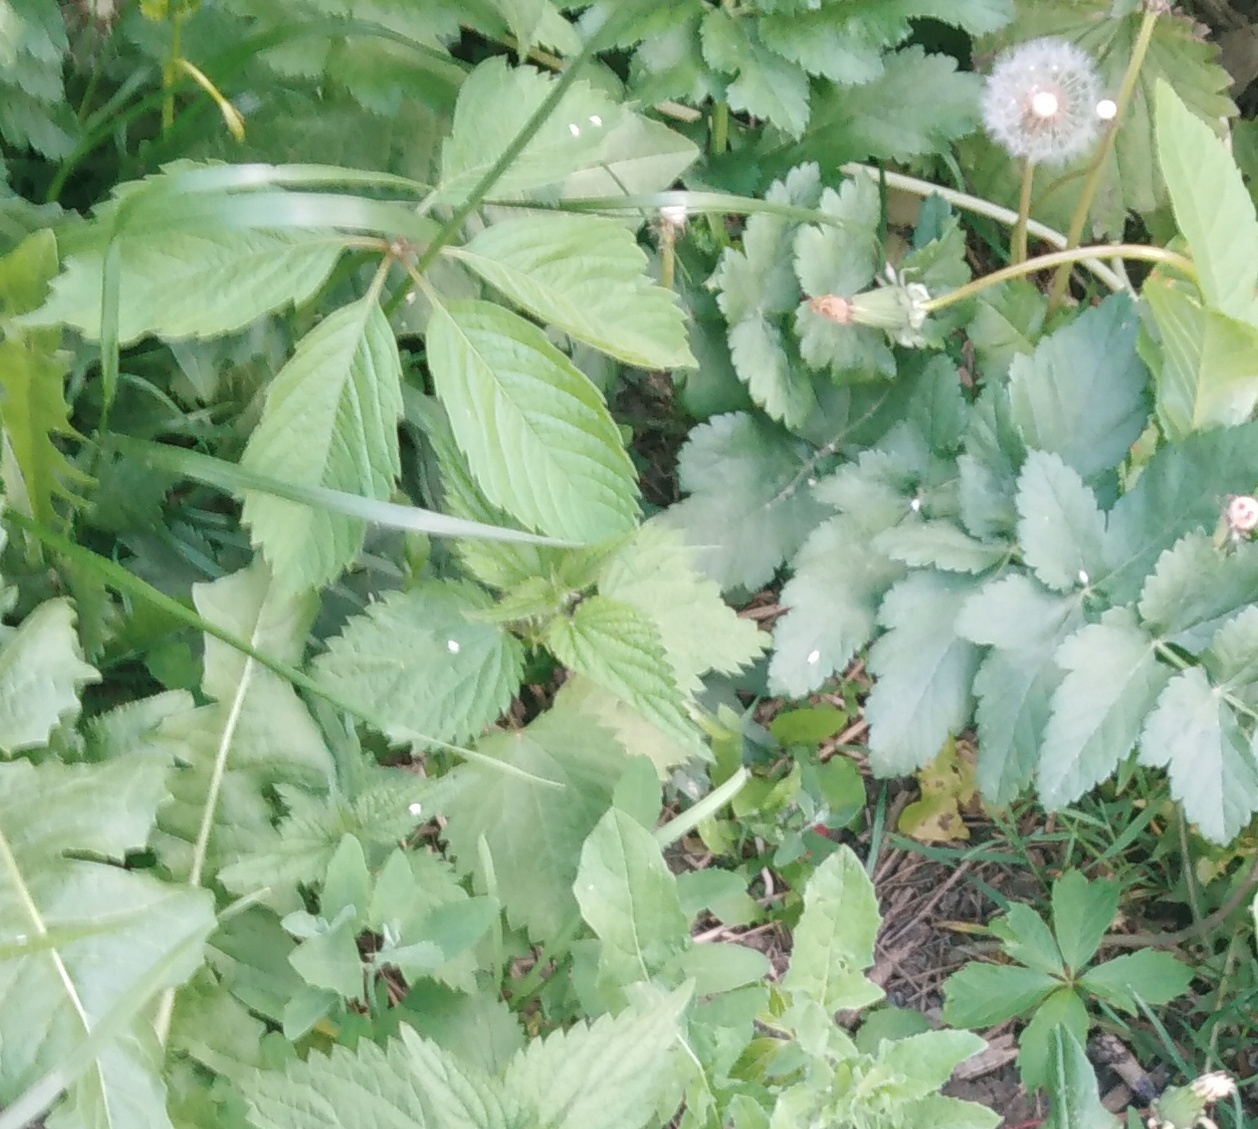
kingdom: Plantae
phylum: Tracheophyta
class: Magnoliopsida
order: Vitales
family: Vitaceae
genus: Parthenocissus
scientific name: Parthenocissus inserta
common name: False virginia-creeper
